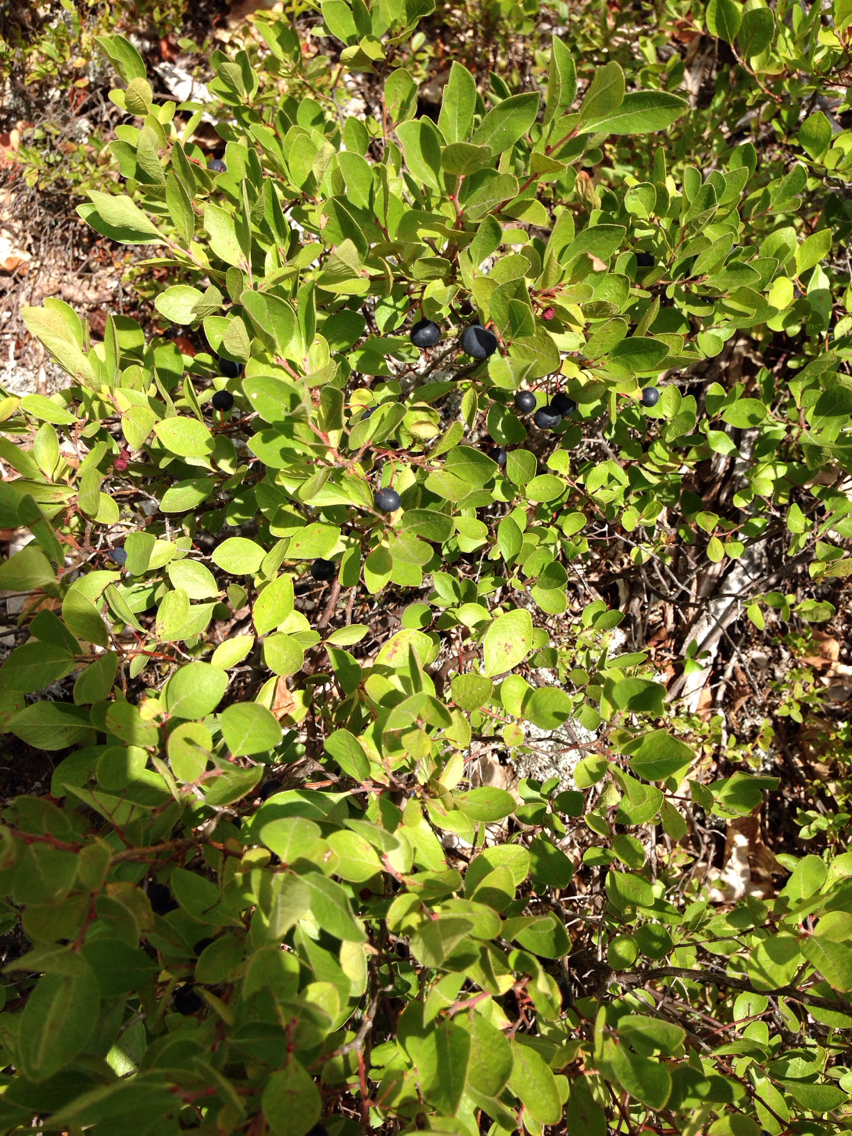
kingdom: Plantae
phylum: Tracheophyta
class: Magnoliopsida
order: Ericales
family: Ericaceae
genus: Gaylussacia
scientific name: Gaylussacia baccata
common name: Black huckleberry
